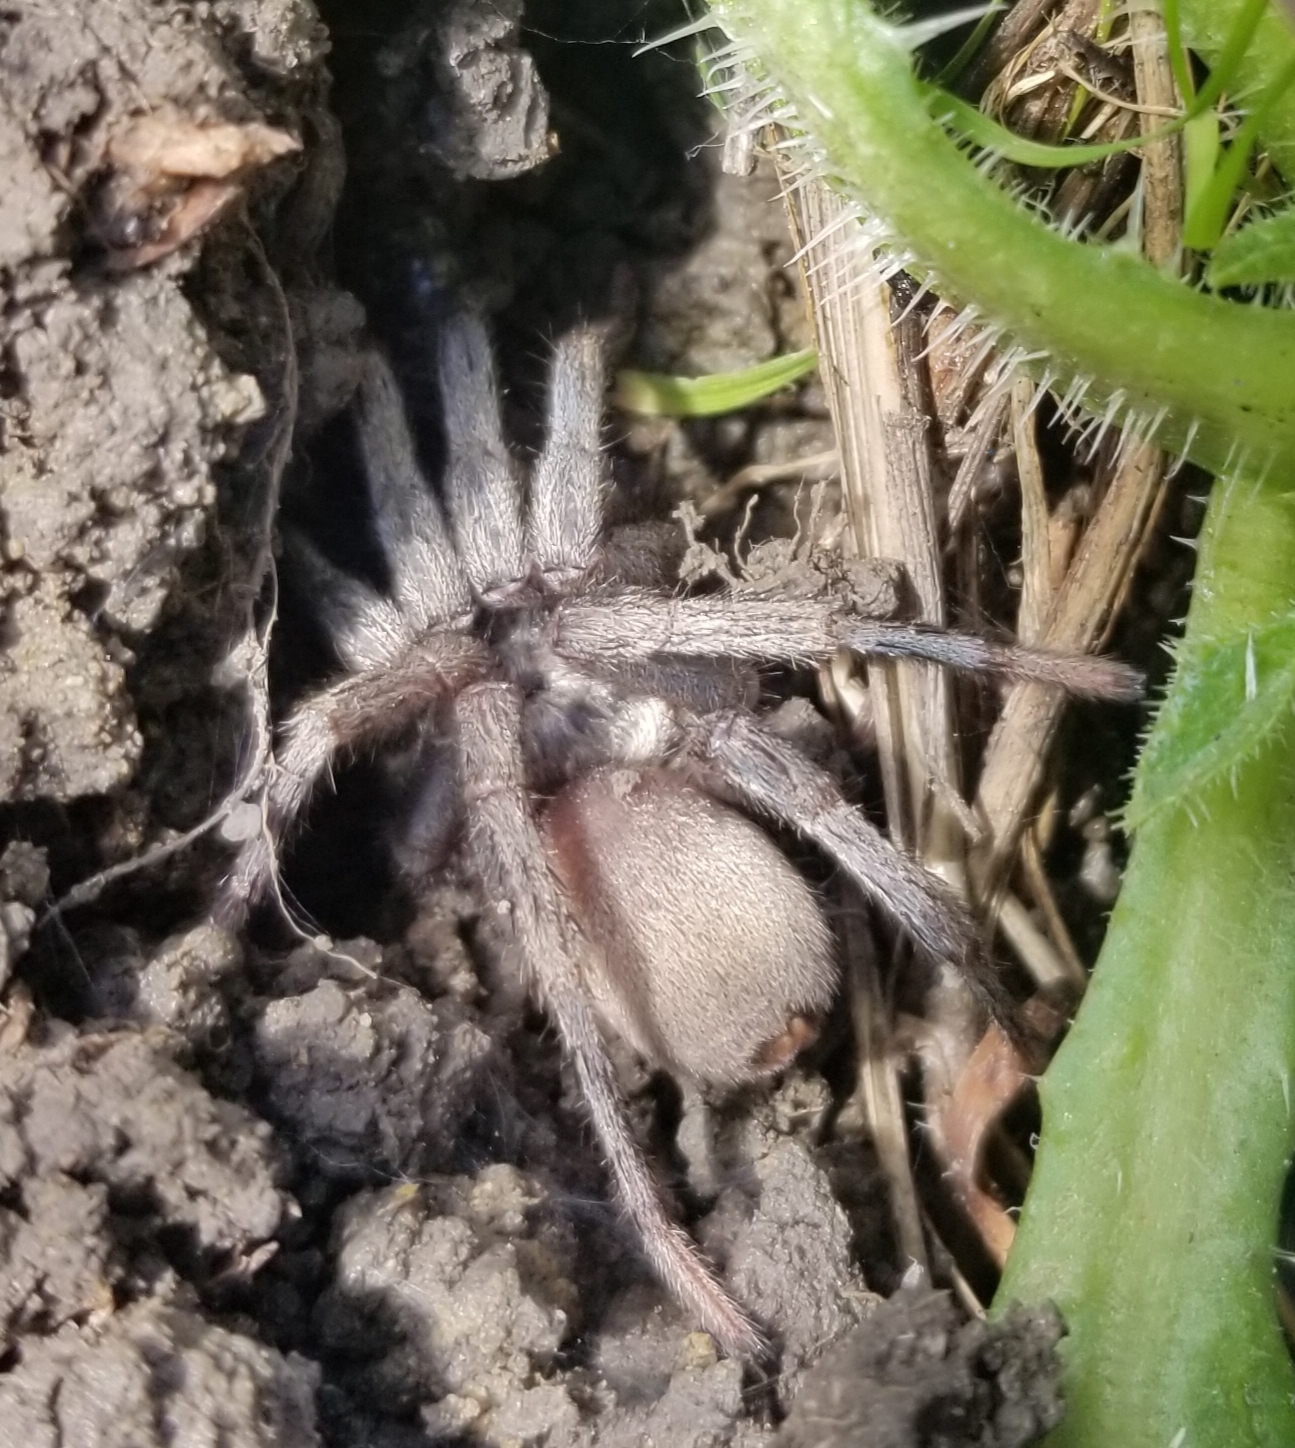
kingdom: Animalia
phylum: Arthropoda
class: Arachnida
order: Araneae
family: Nemesiidae
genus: Calisoga
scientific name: Calisoga longitarsis
